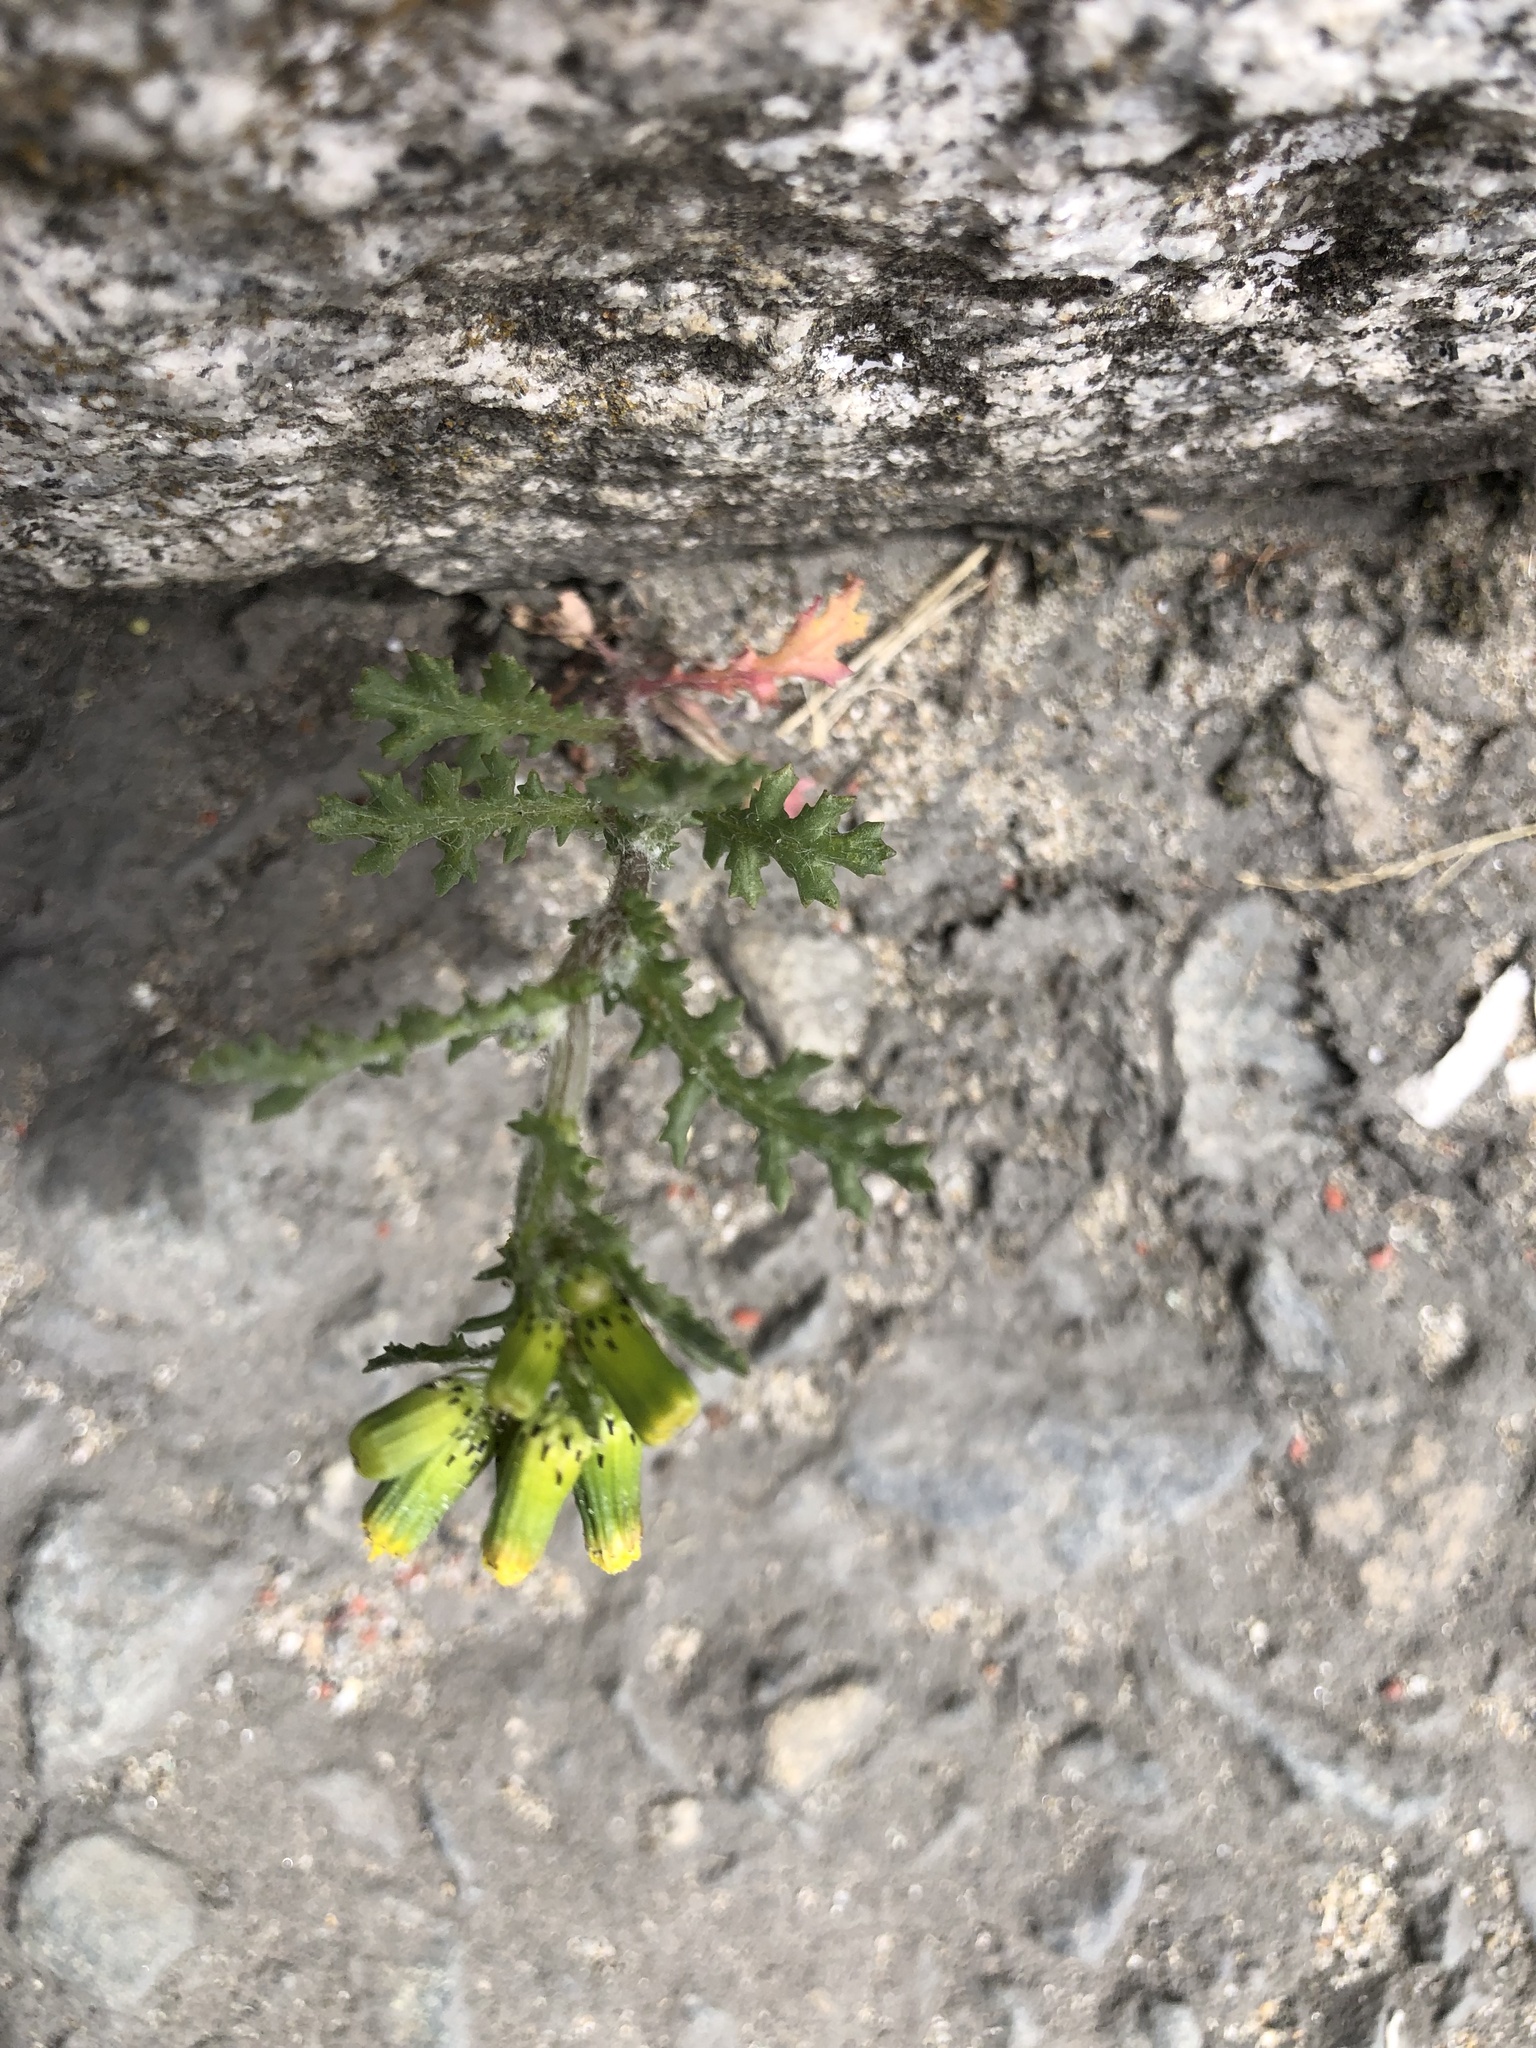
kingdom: Plantae
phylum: Tracheophyta
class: Magnoliopsida
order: Asterales
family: Asteraceae
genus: Senecio
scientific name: Senecio vulgaris
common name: Old-man-in-the-spring
